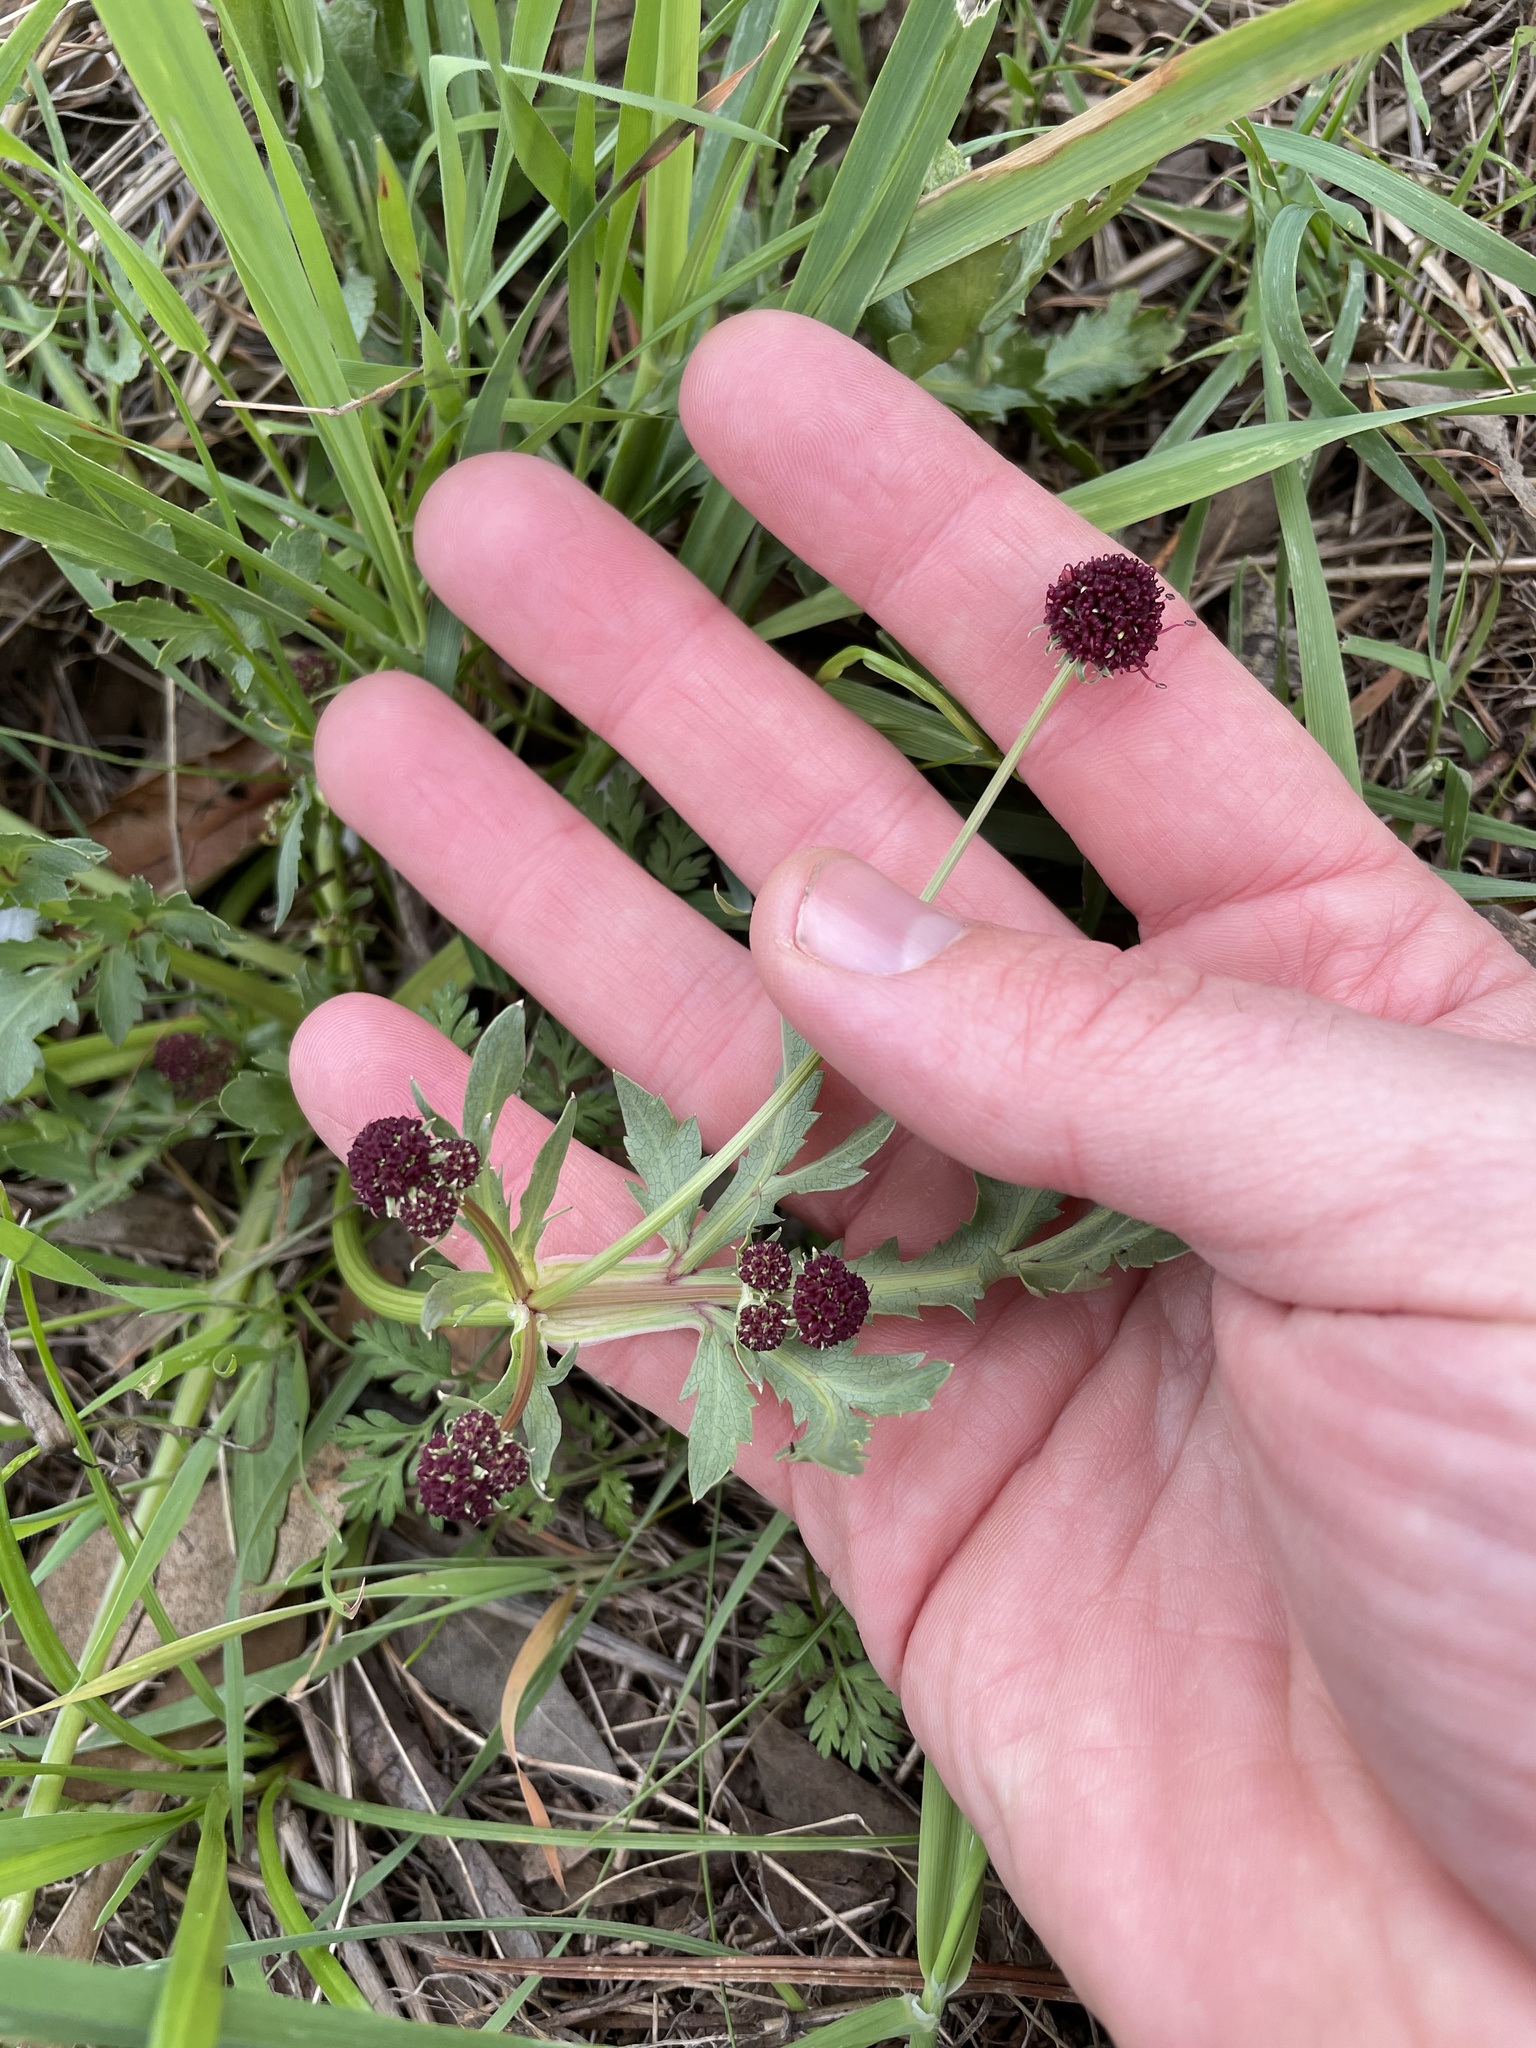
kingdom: Plantae
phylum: Tracheophyta
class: Magnoliopsida
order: Apiales
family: Apiaceae
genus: Sanicula
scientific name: Sanicula bipinnatifida
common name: Shoe-buttons
